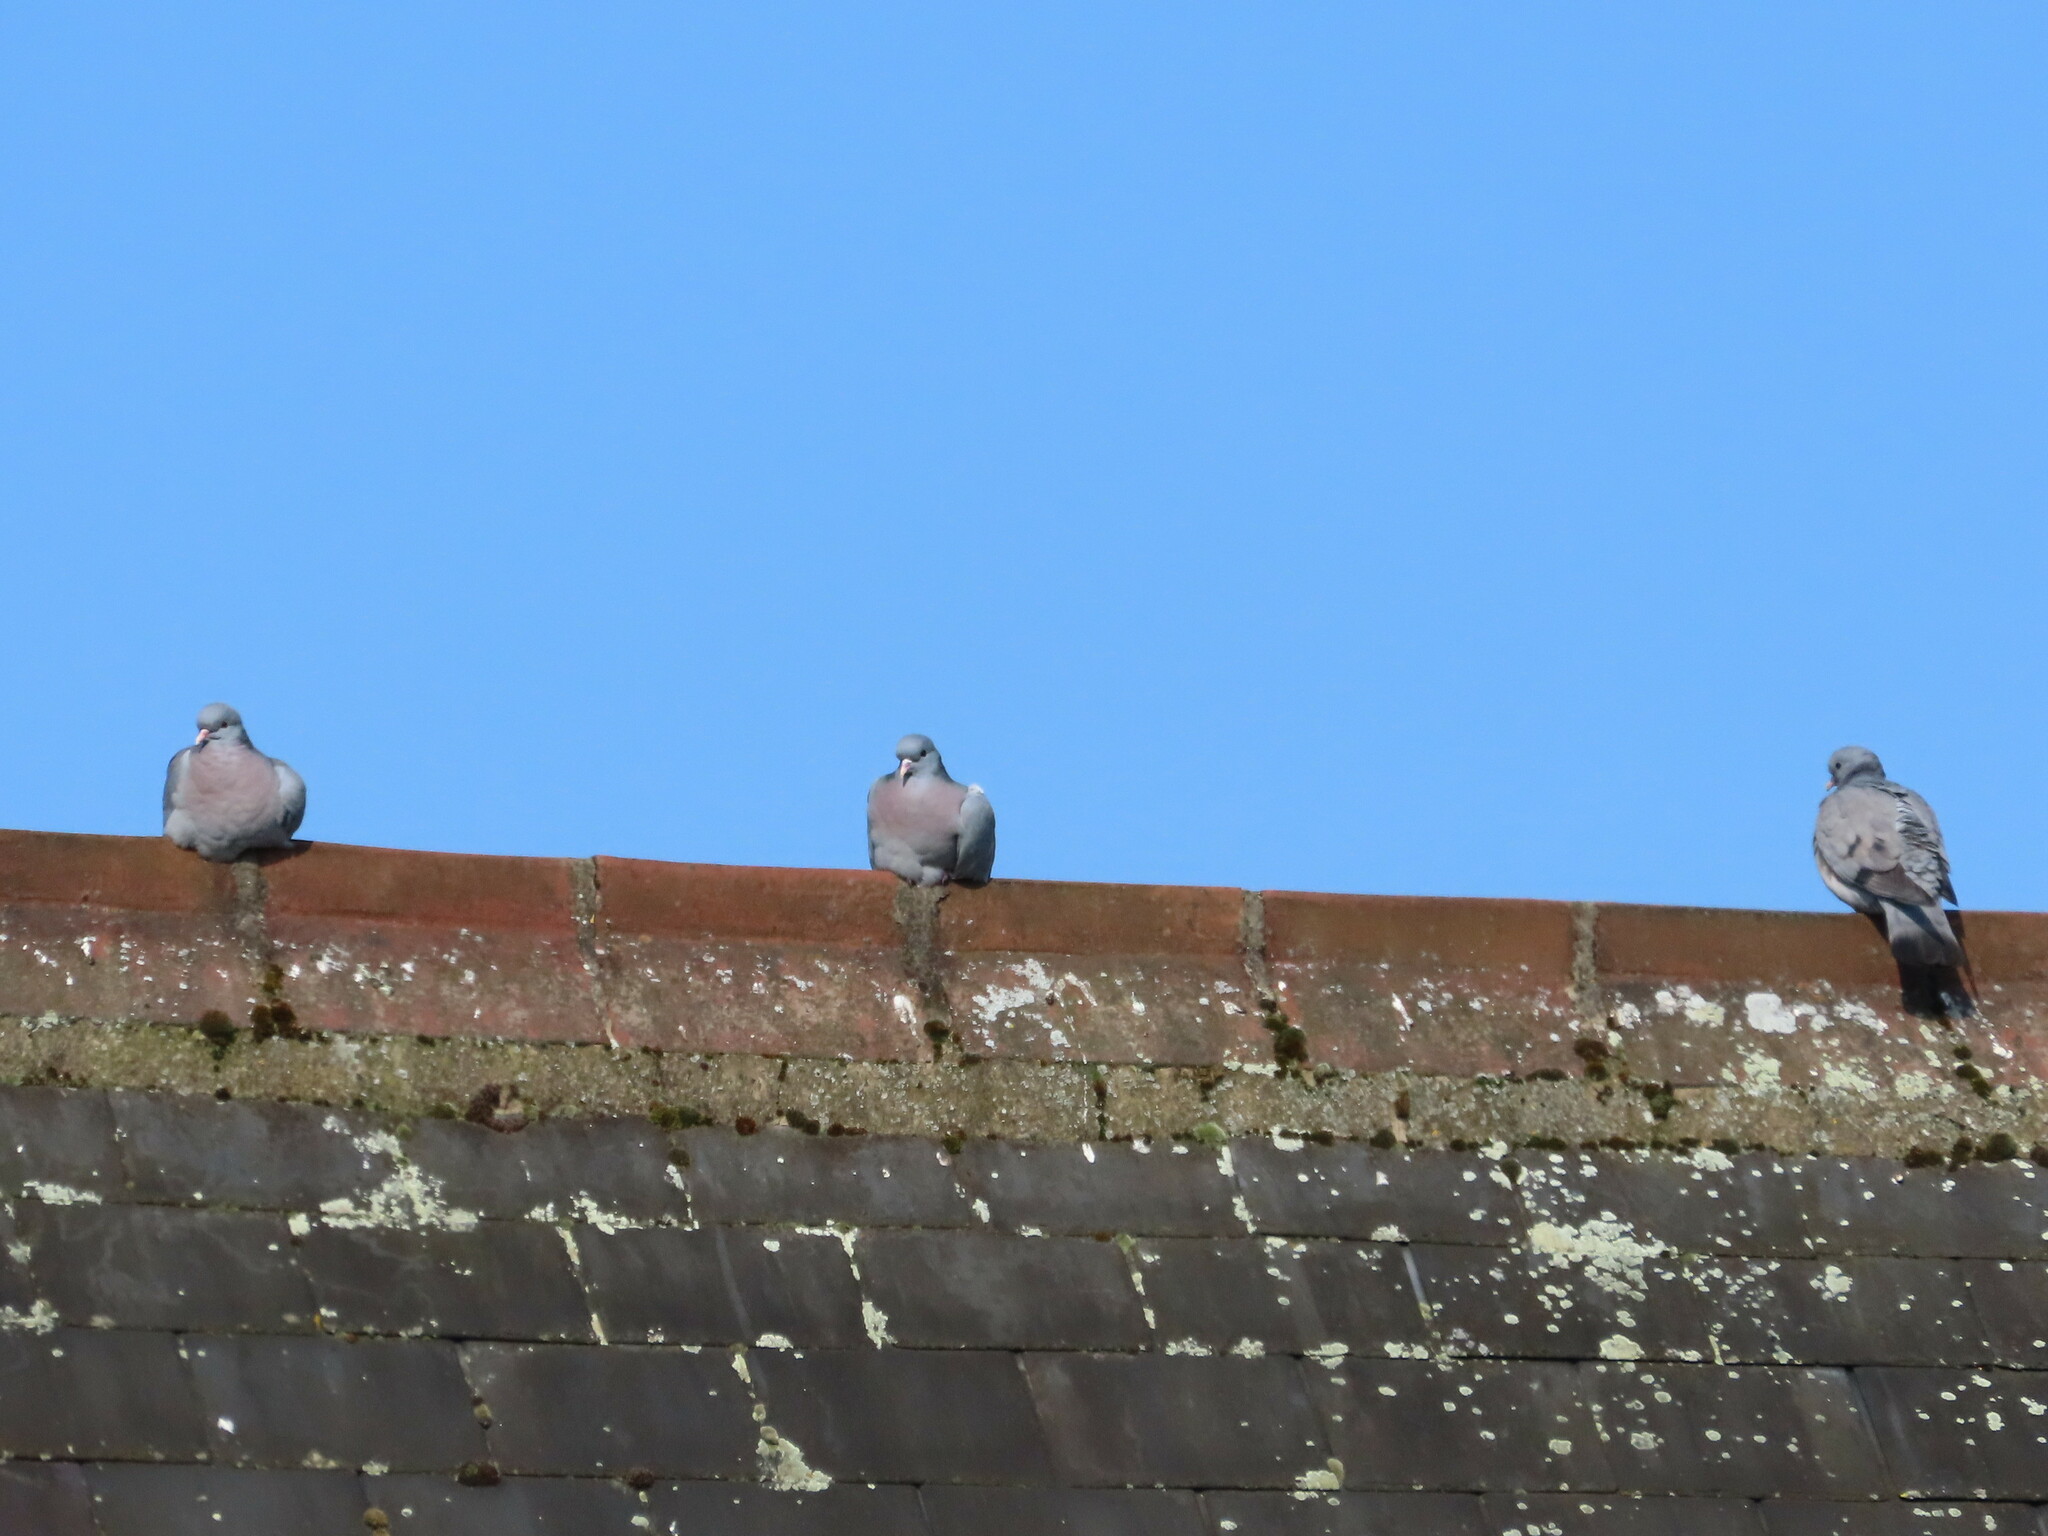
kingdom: Animalia
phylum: Chordata
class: Aves
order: Columbiformes
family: Columbidae
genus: Columba
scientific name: Columba oenas
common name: Stock dove
